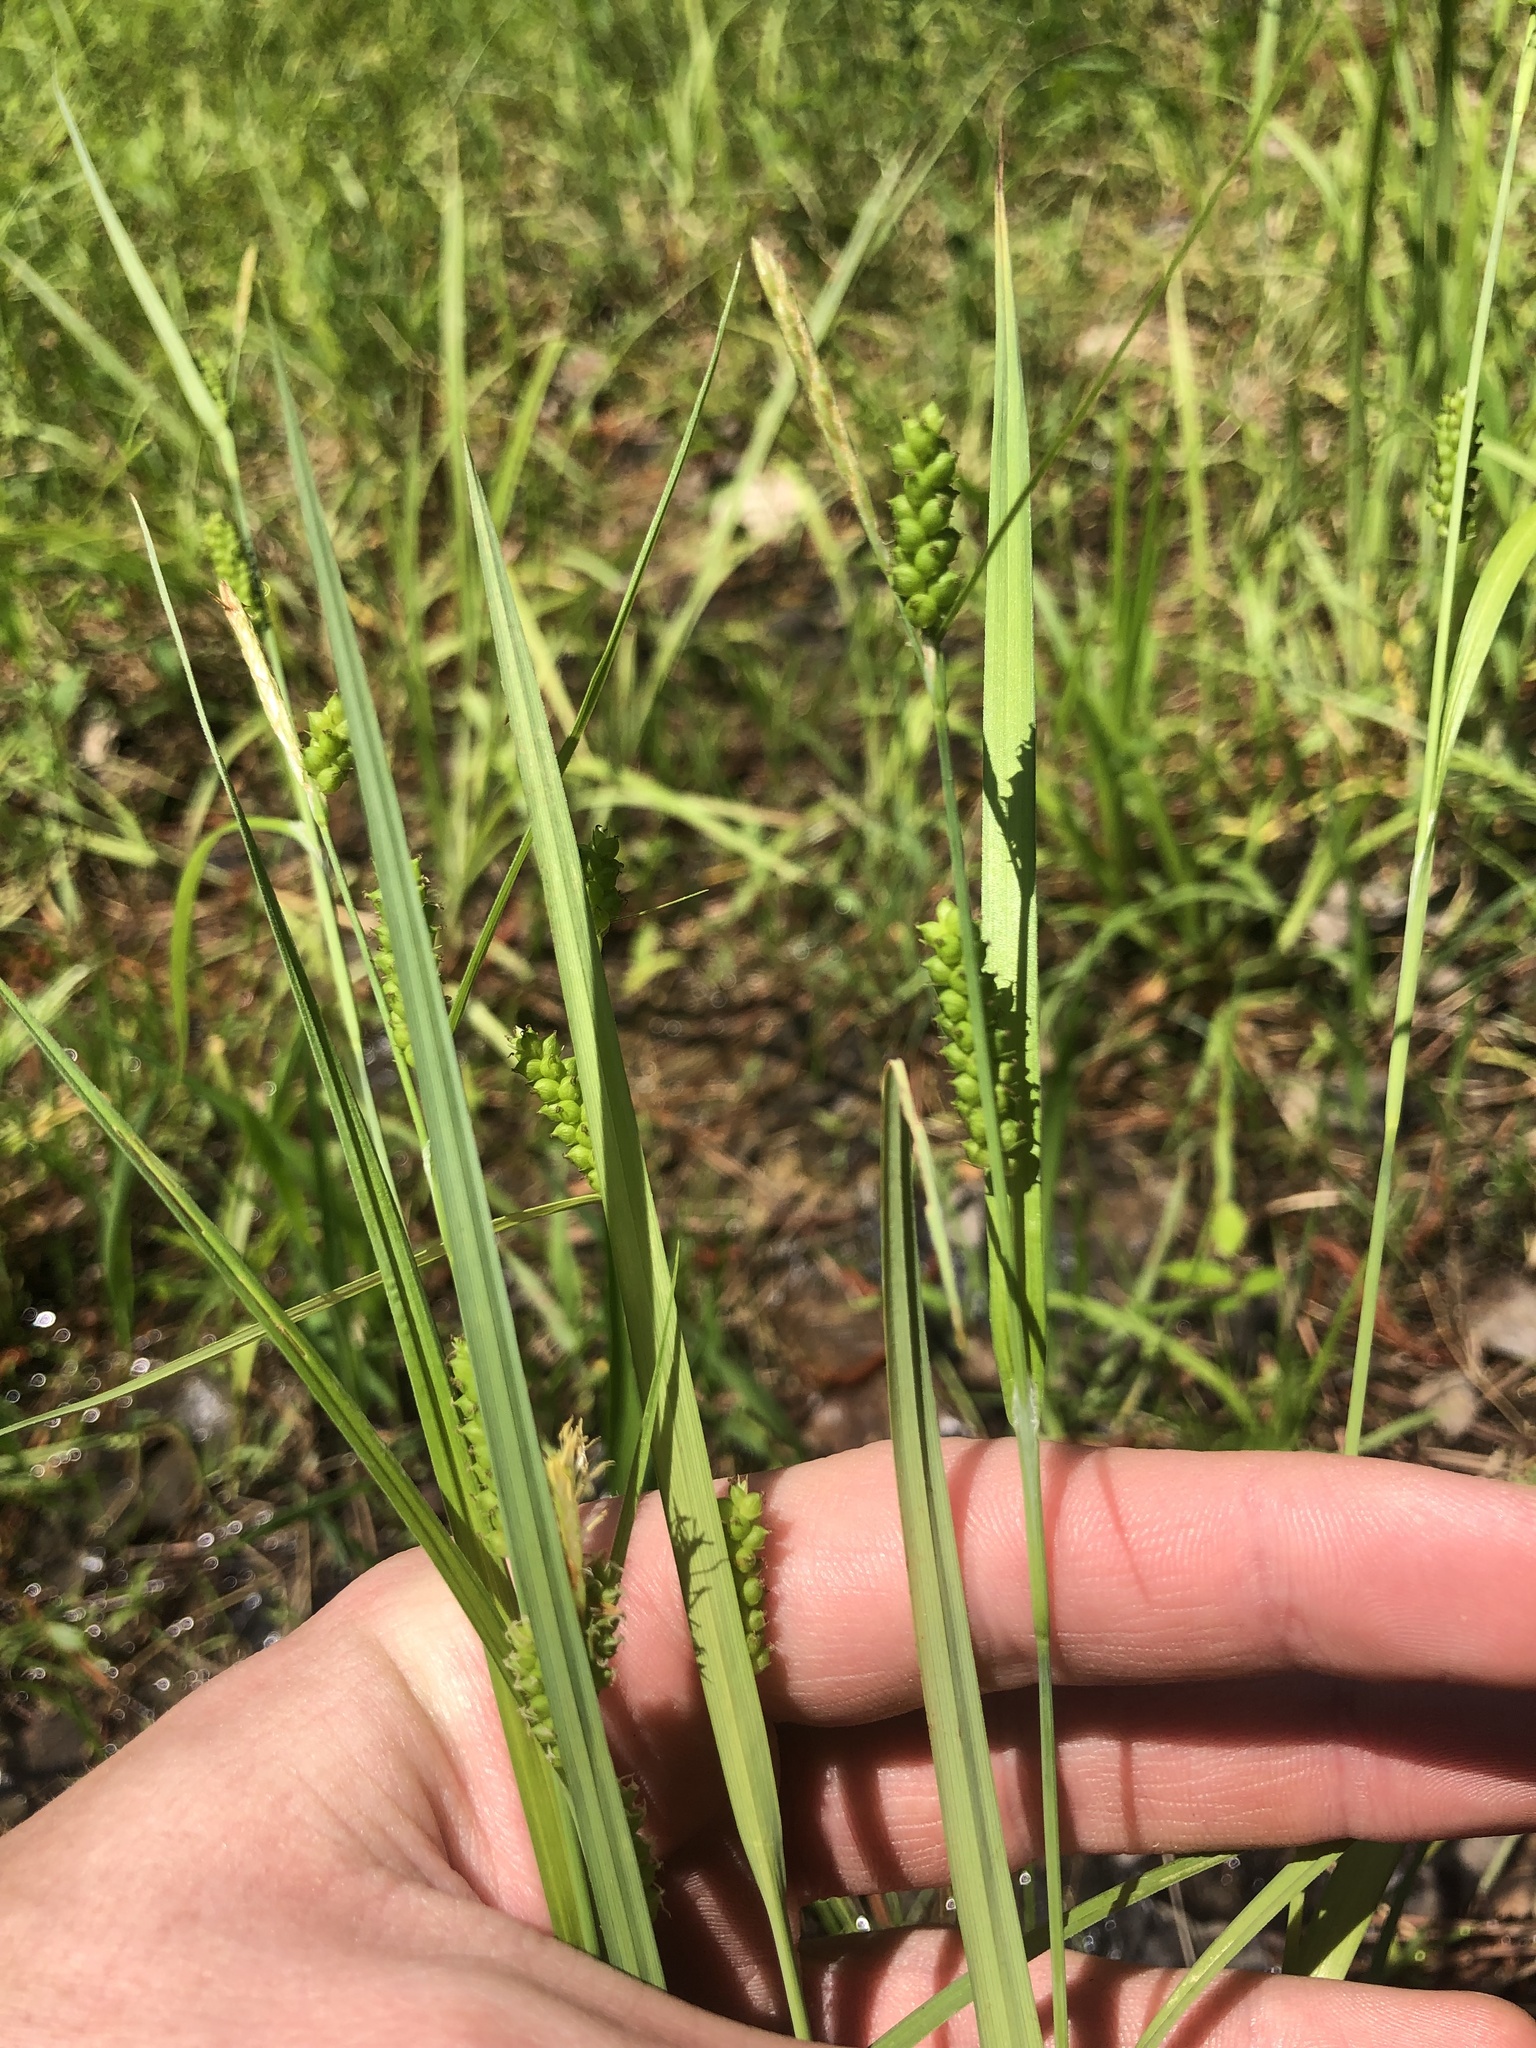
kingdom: Plantae
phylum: Tracheophyta
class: Liliopsida
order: Poales
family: Cyperaceae
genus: Carex
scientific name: Carex granularis
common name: Granular sedge
